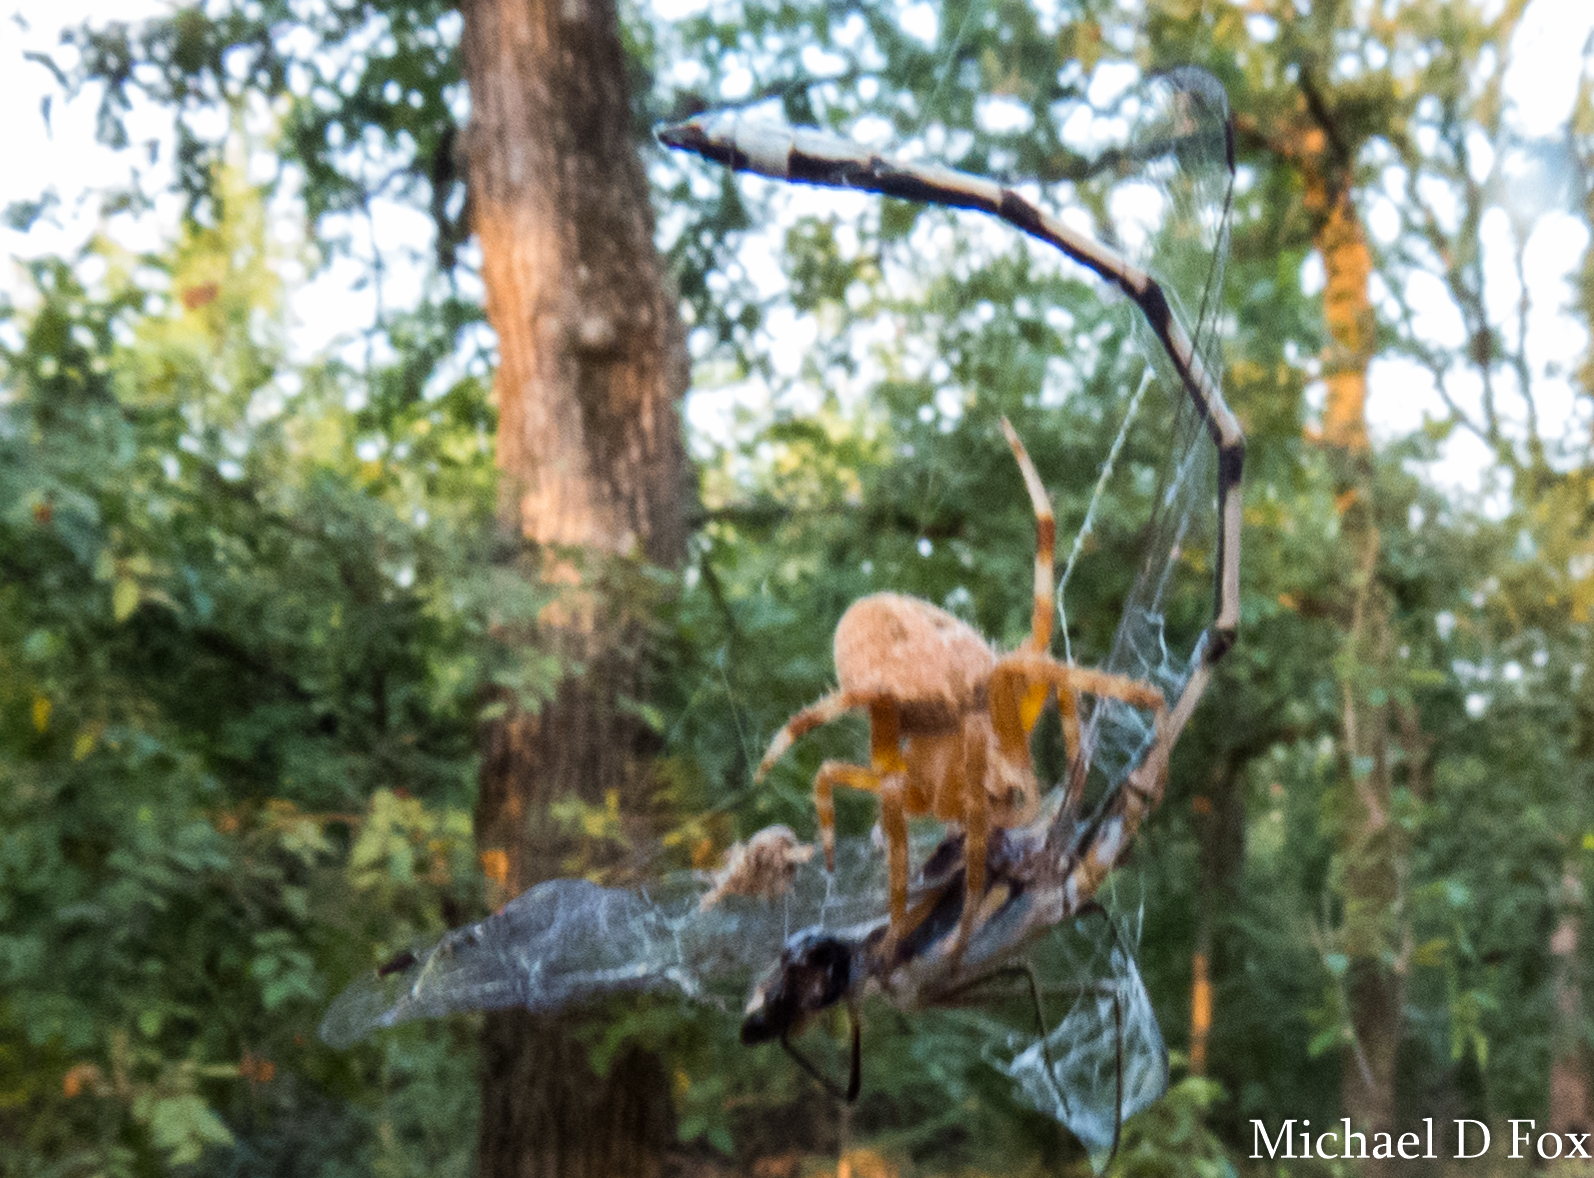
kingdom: Animalia
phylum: Arthropoda
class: Arachnida
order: Araneae
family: Araneidae
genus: Neoscona
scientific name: Neoscona crucifera
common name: Spotted orbweaver
